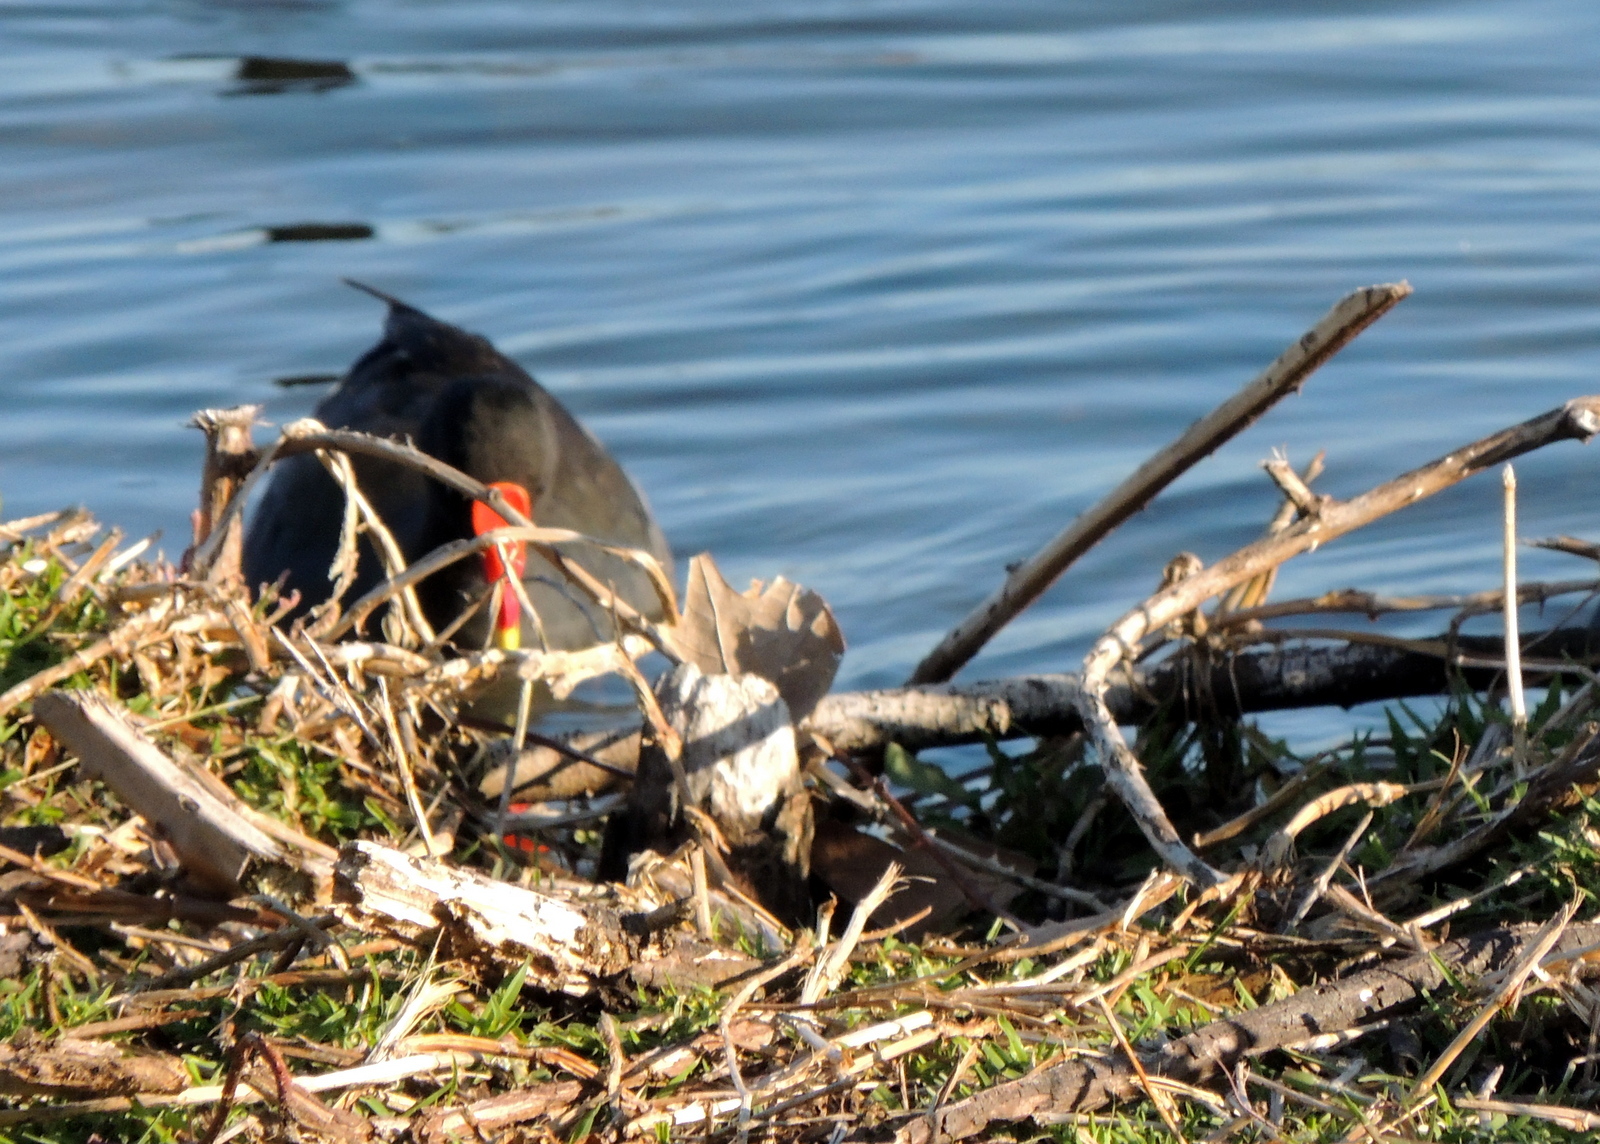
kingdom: Animalia
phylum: Chordata
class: Aves
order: Gruiformes
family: Rallidae
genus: Gallinula
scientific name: Gallinula tenebrosa
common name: Dusky moorhen
